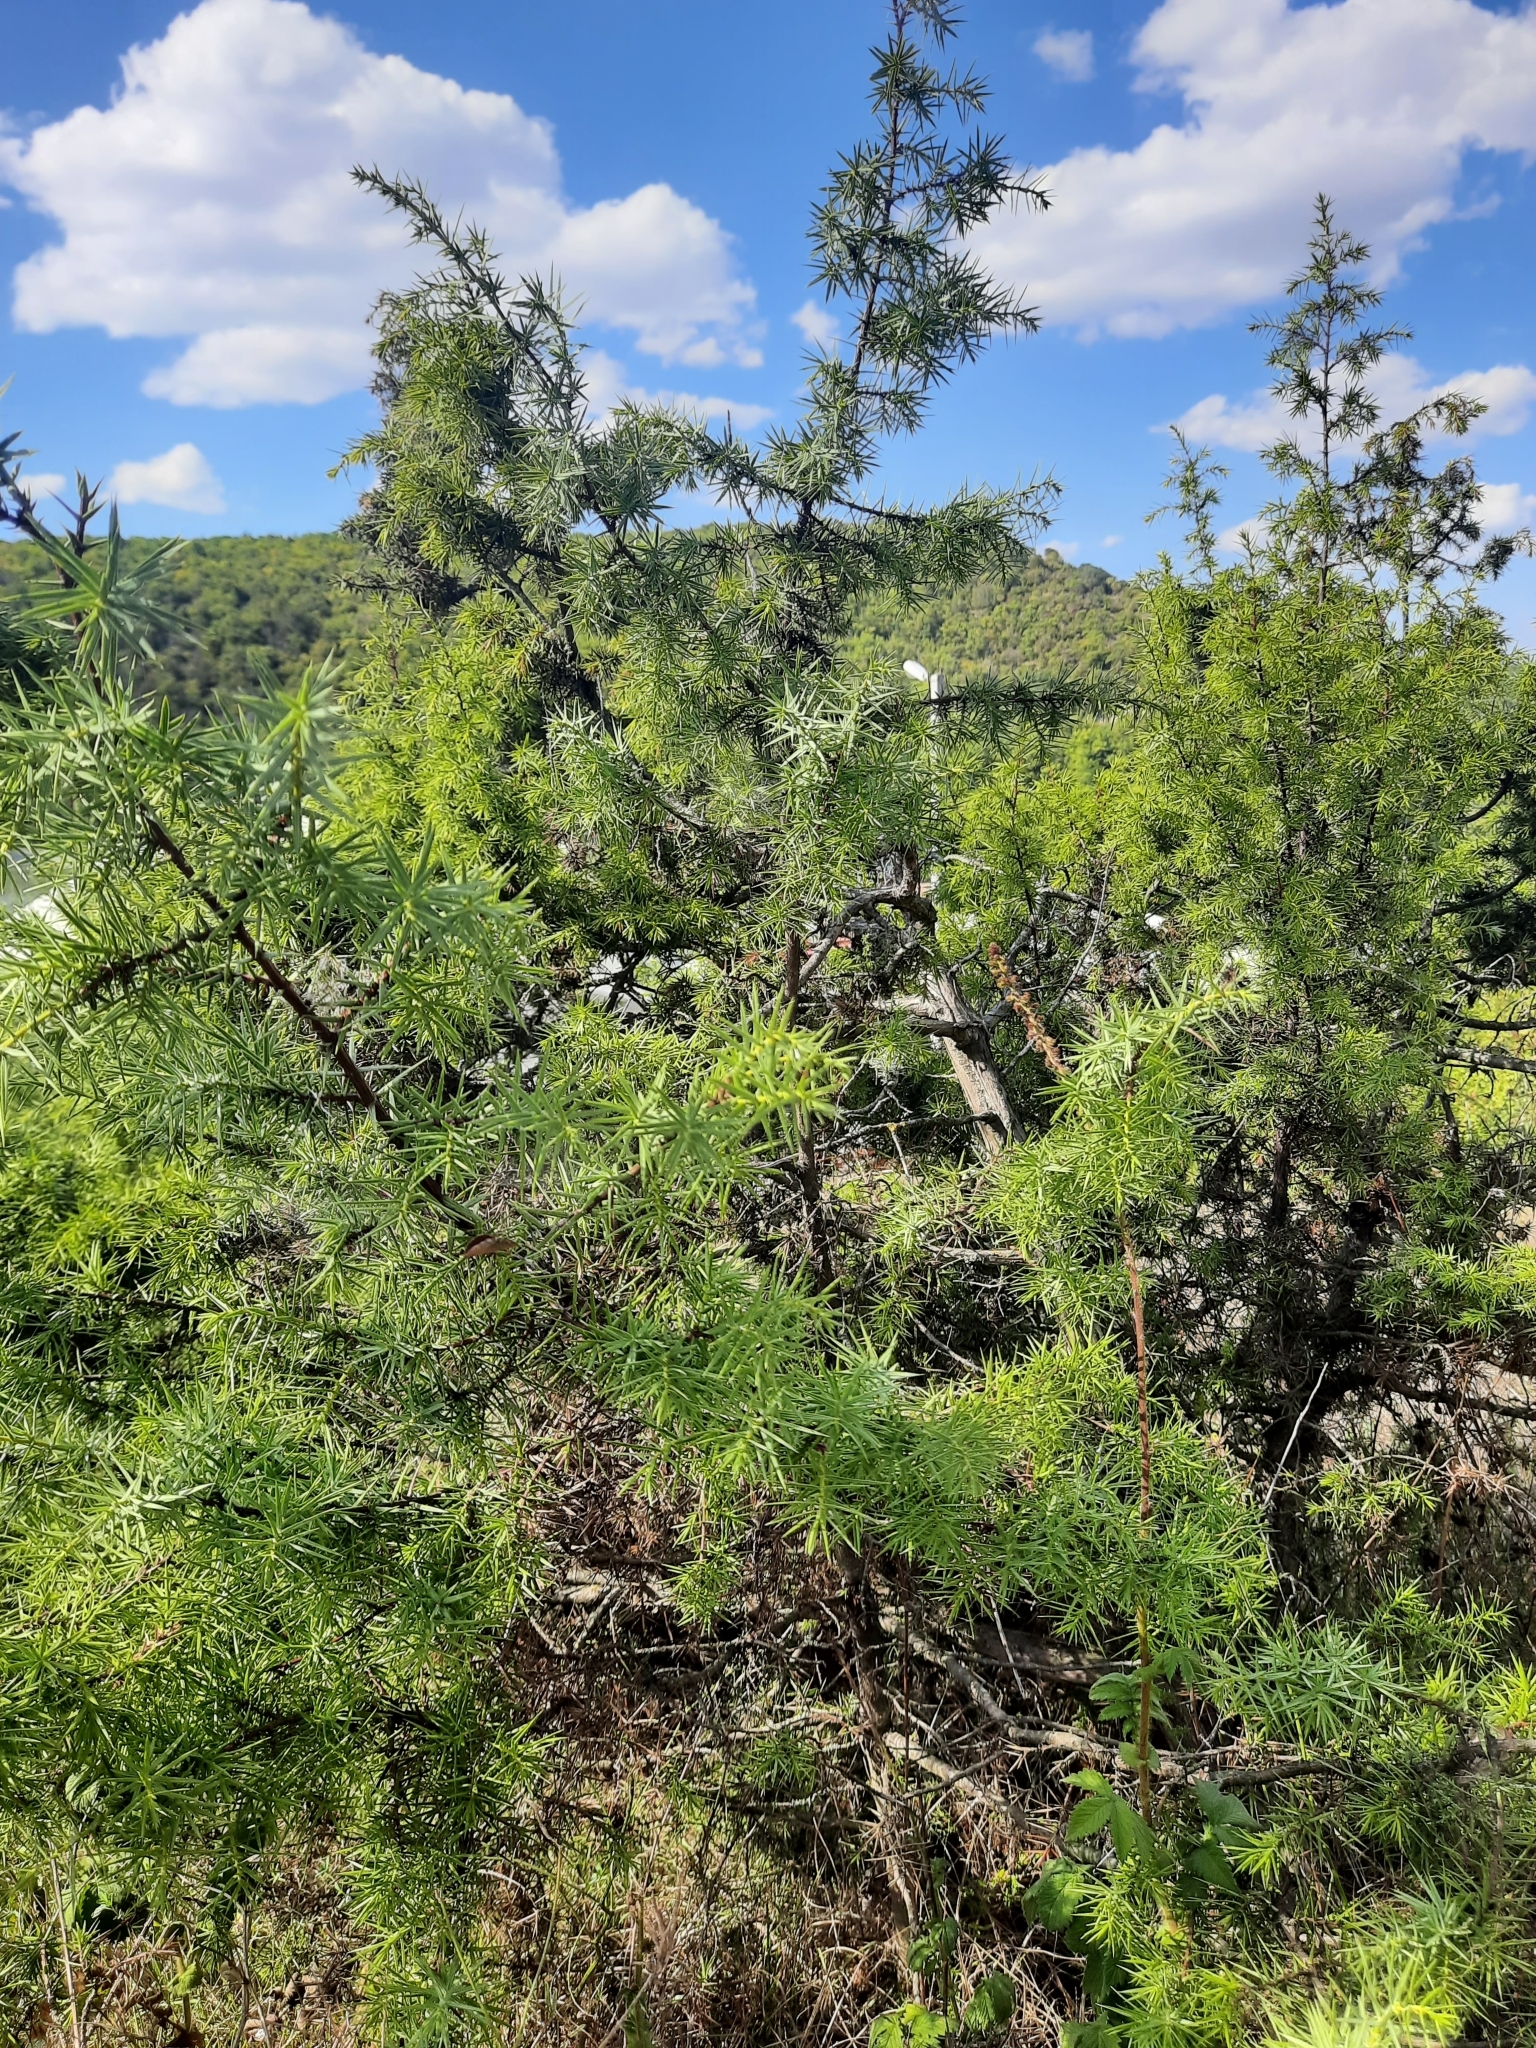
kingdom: Plantae
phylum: Tracheophyta
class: Pinopsida
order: Pinales
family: Cupressaceae
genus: Juniperus
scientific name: Juniperus oxycedrus
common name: Prickly juniper
